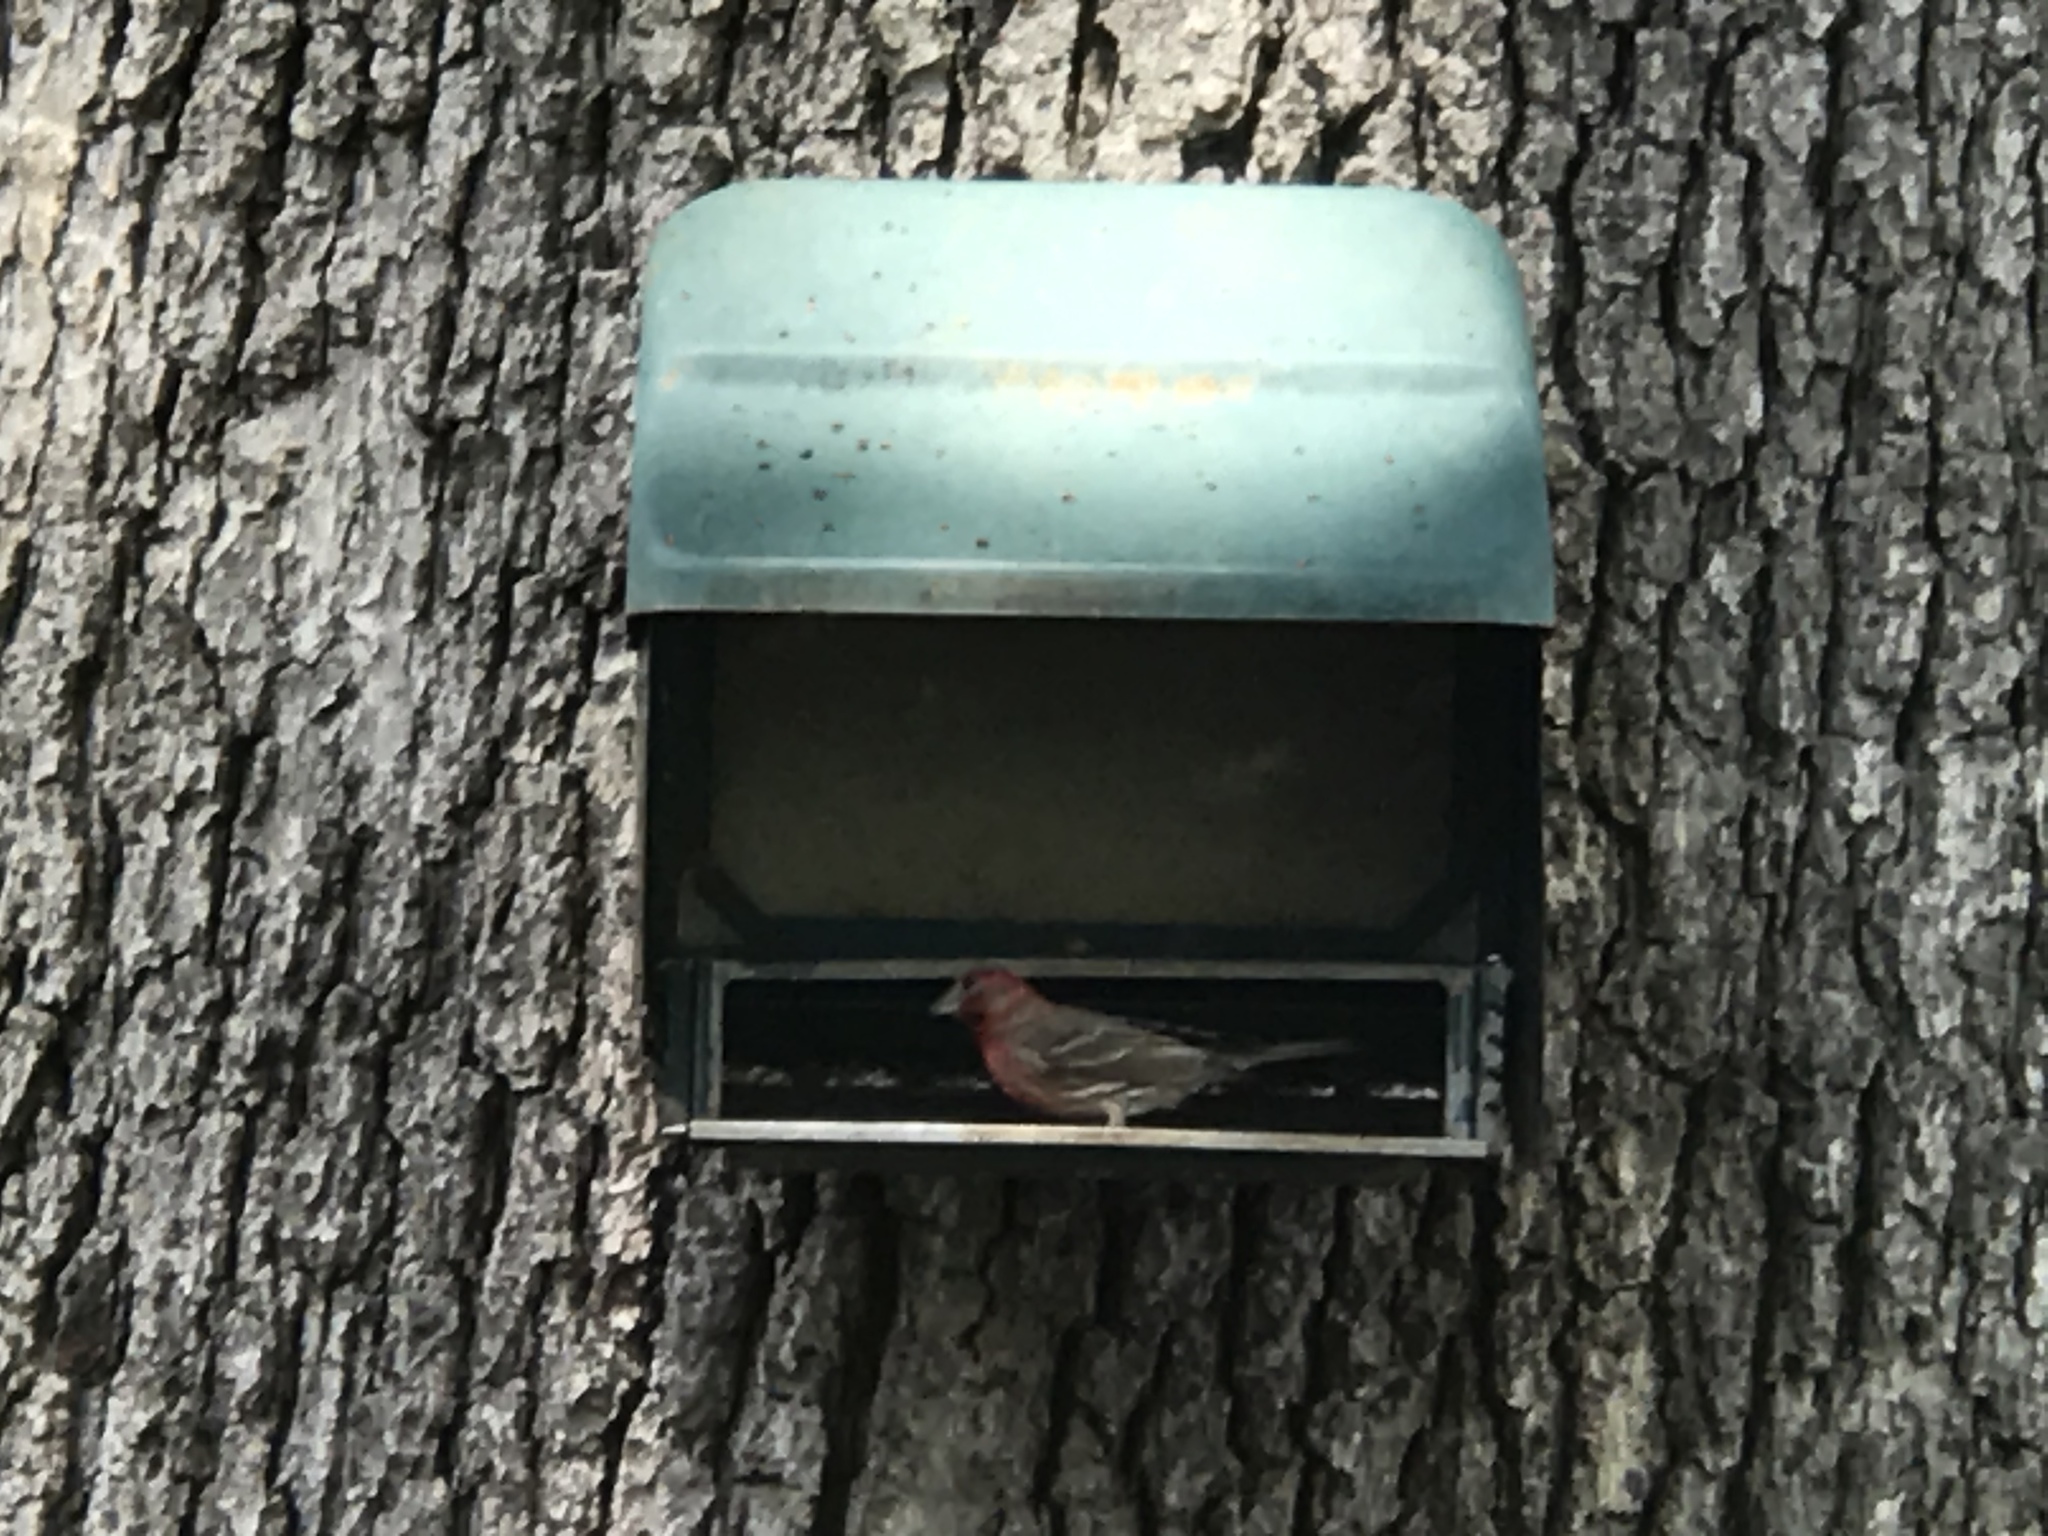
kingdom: Animalia
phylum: Chordata
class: Aves
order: Passeriformes
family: Fringillidae
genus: Haemorhous
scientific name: Haemorhous mexicanus
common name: House finch
